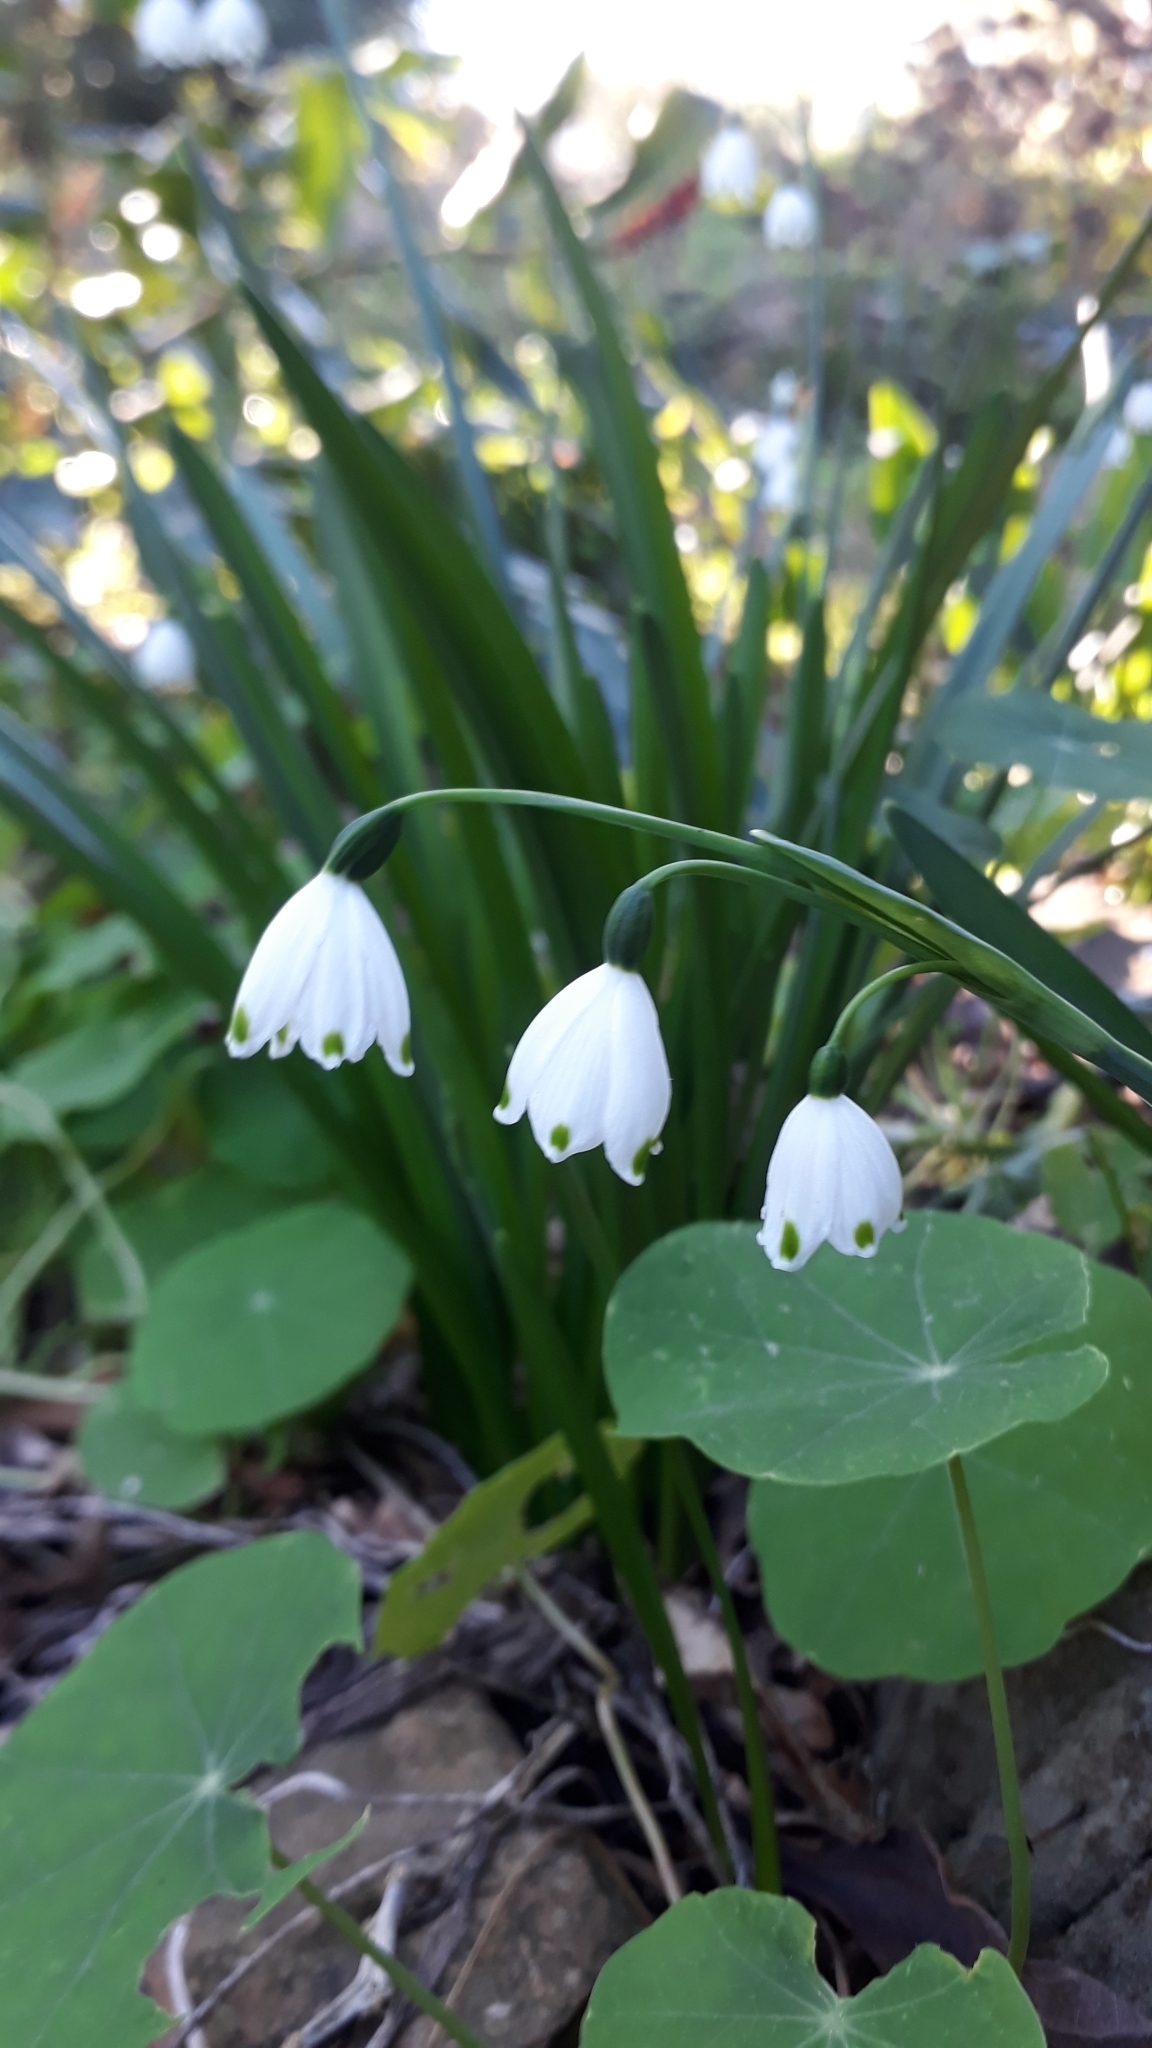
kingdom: Plantae
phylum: Tracheophyta
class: Liliopsida
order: Asparagales
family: Amaryllidaceae
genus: Leucojum
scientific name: Leucojum aestivum
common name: Summer snowflake
